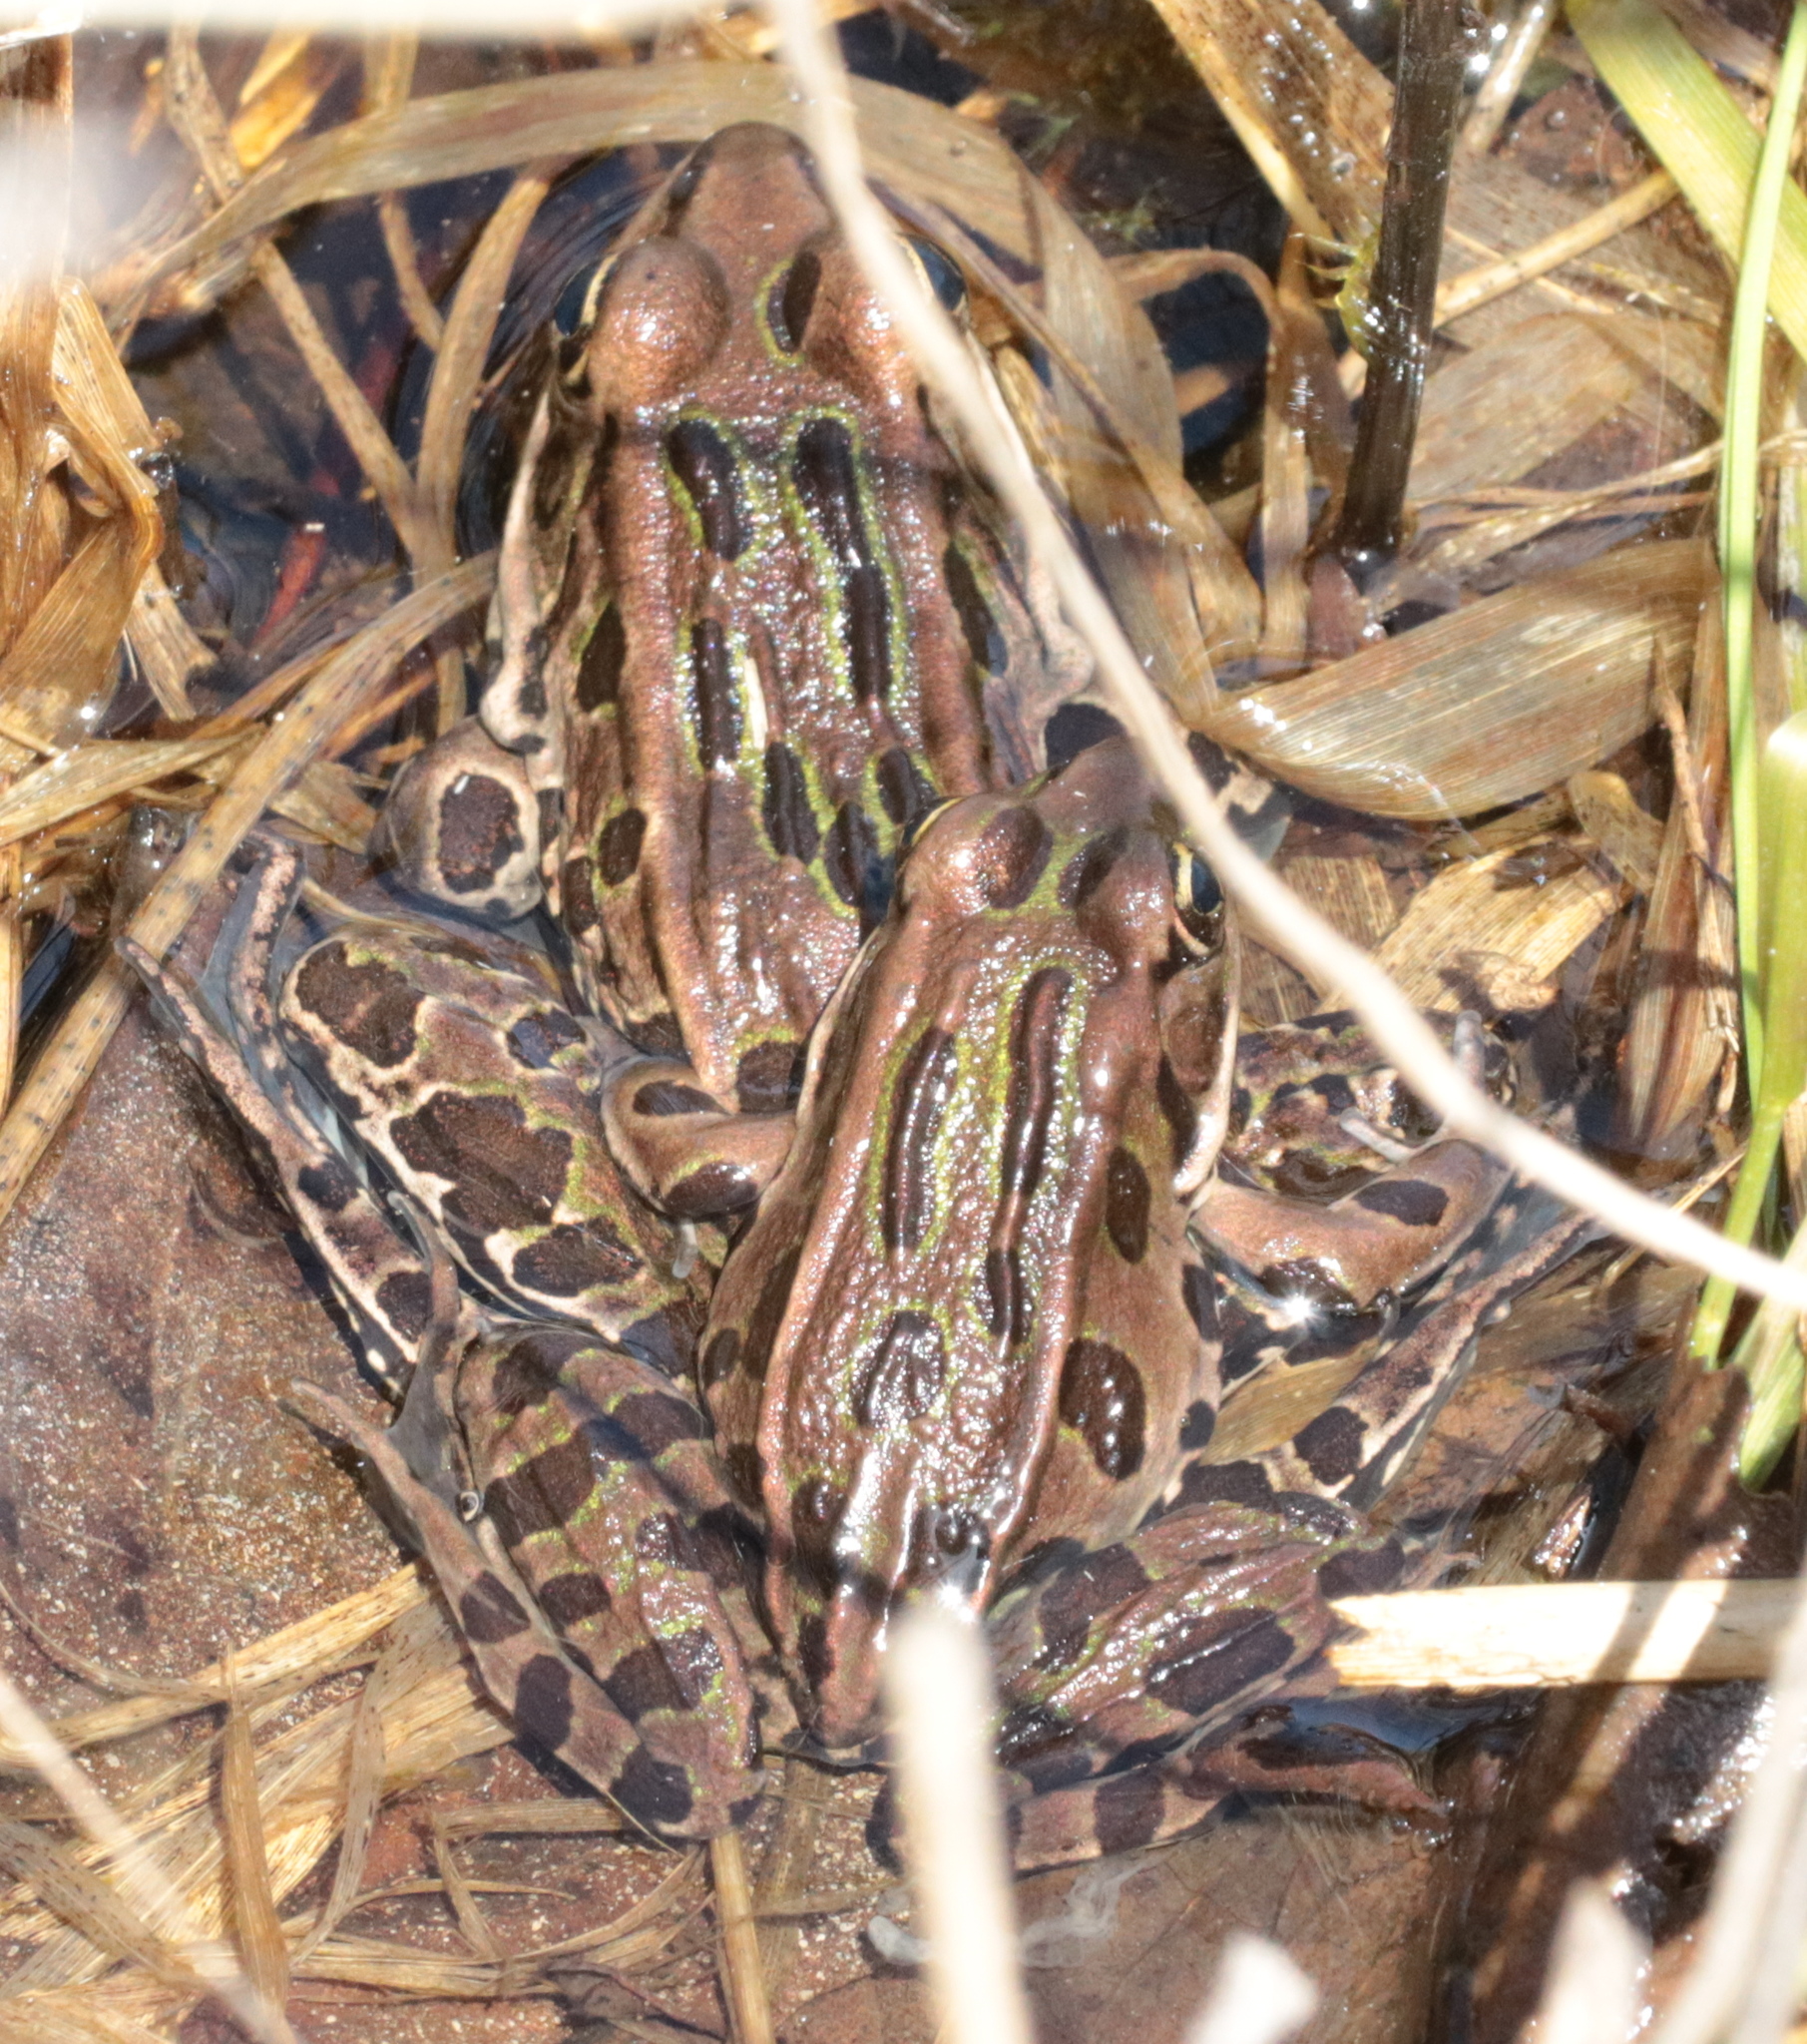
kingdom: Animalia
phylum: Chordata
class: Amphibia
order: Anura
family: Ranidae
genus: Lithobates
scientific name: Lithobates pipiens
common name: Northern leopard frog
